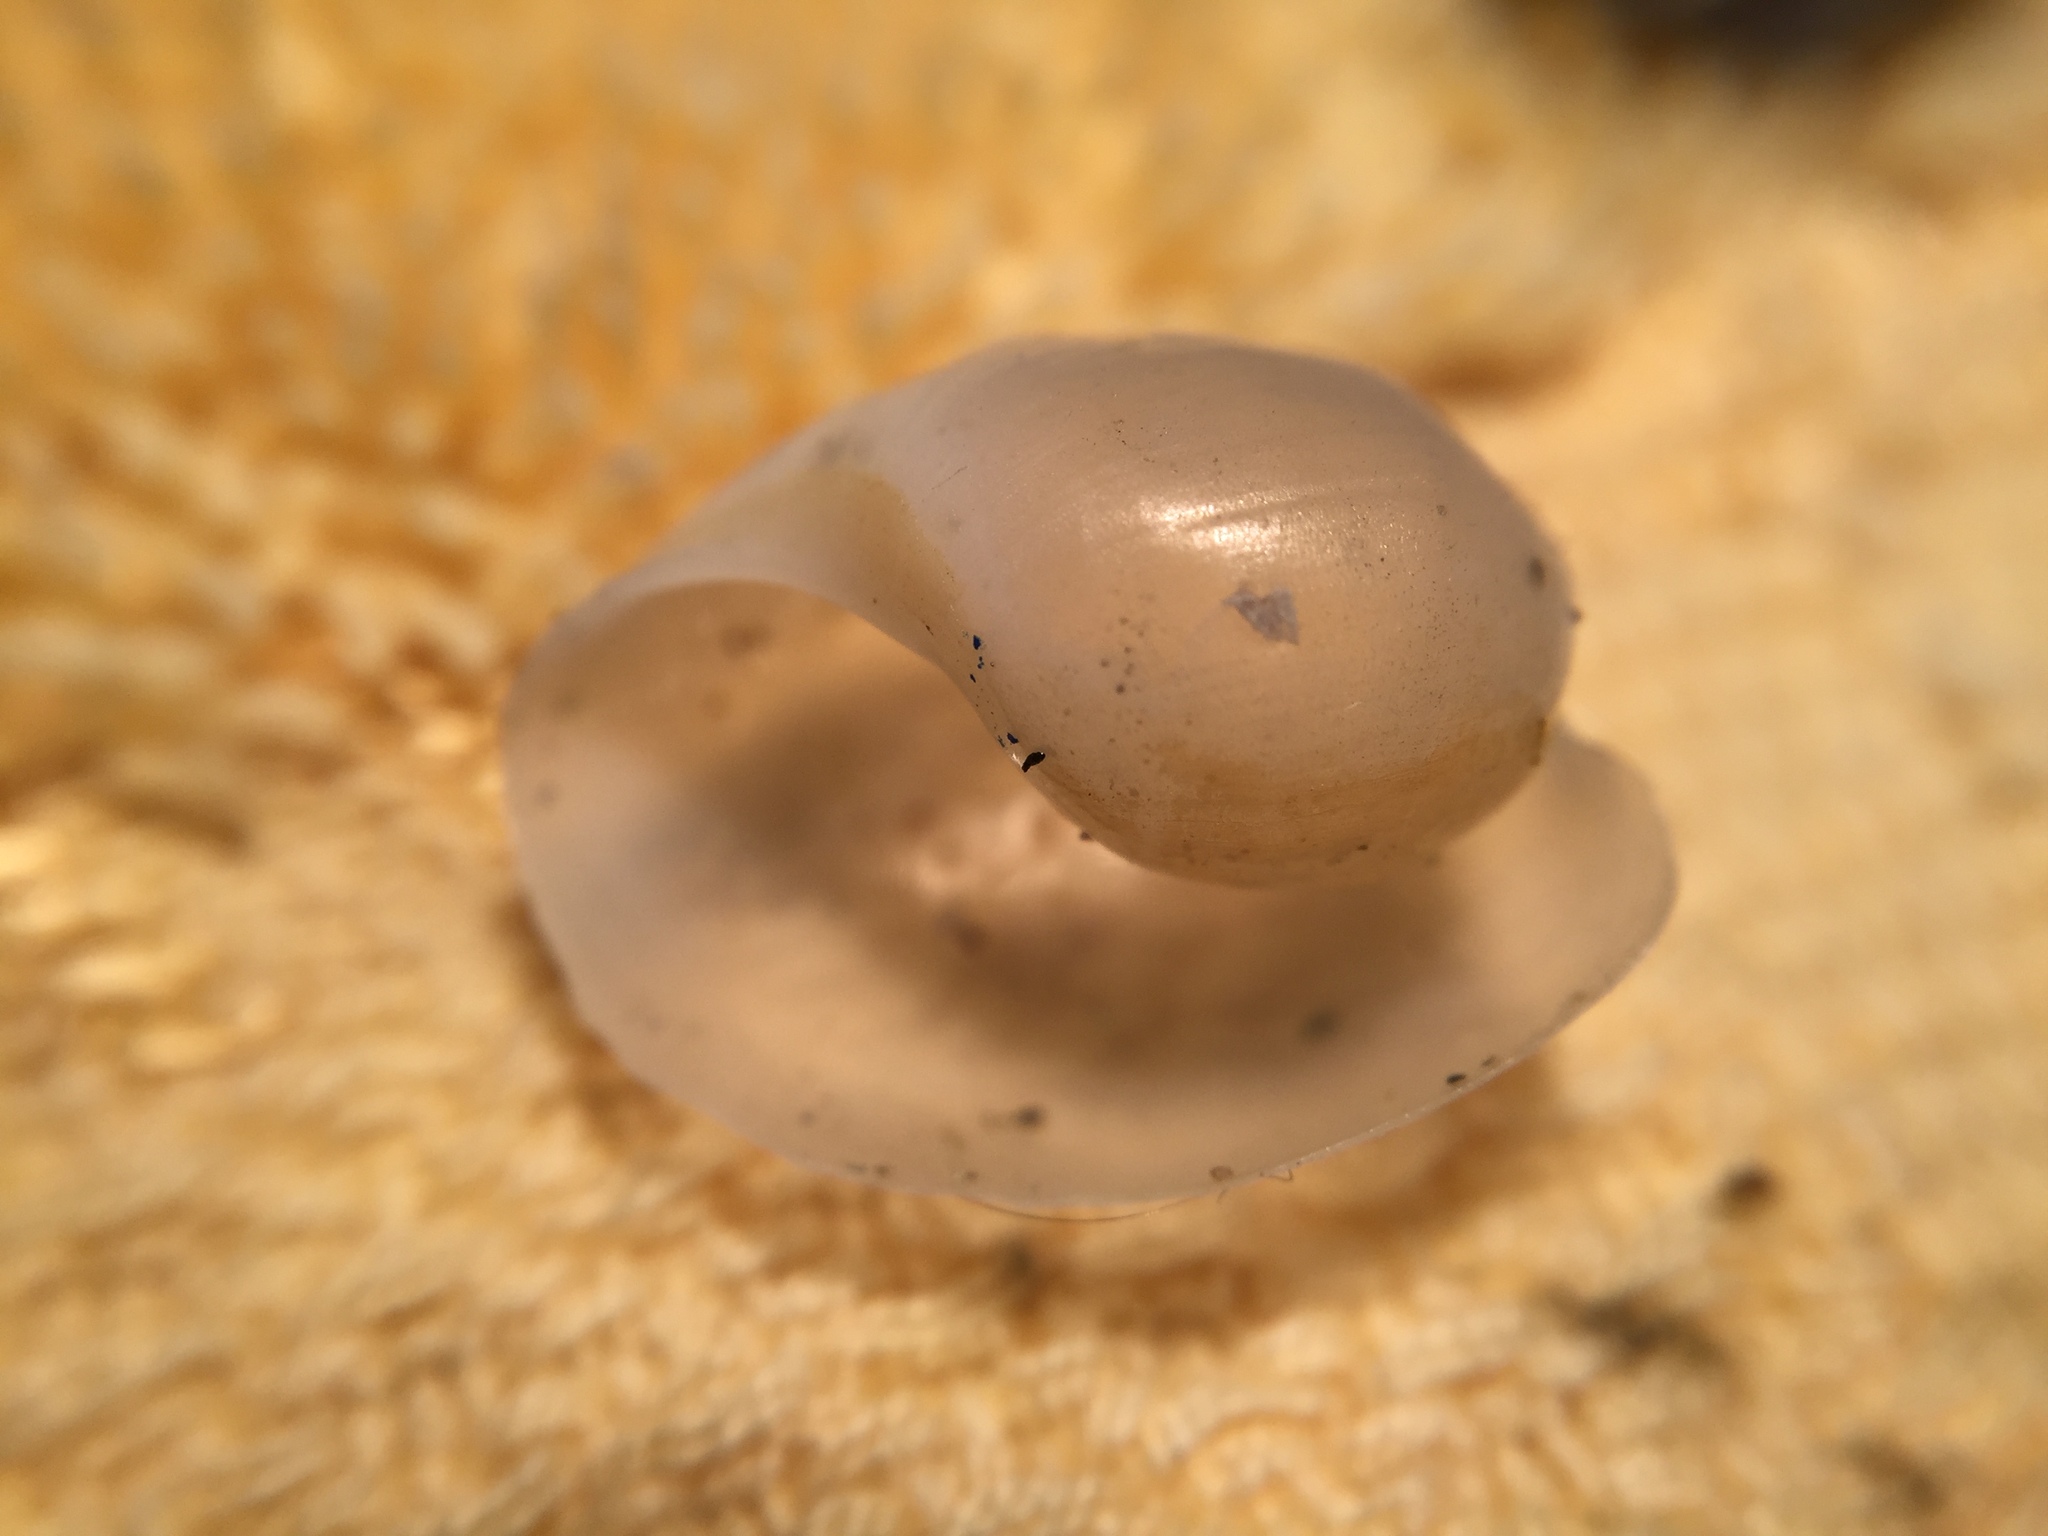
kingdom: Animalia
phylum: Mollusca
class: Gastropoda
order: Cephalaspidea
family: Haminoeidae
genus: Papawera
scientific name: Papawera zelandiae
